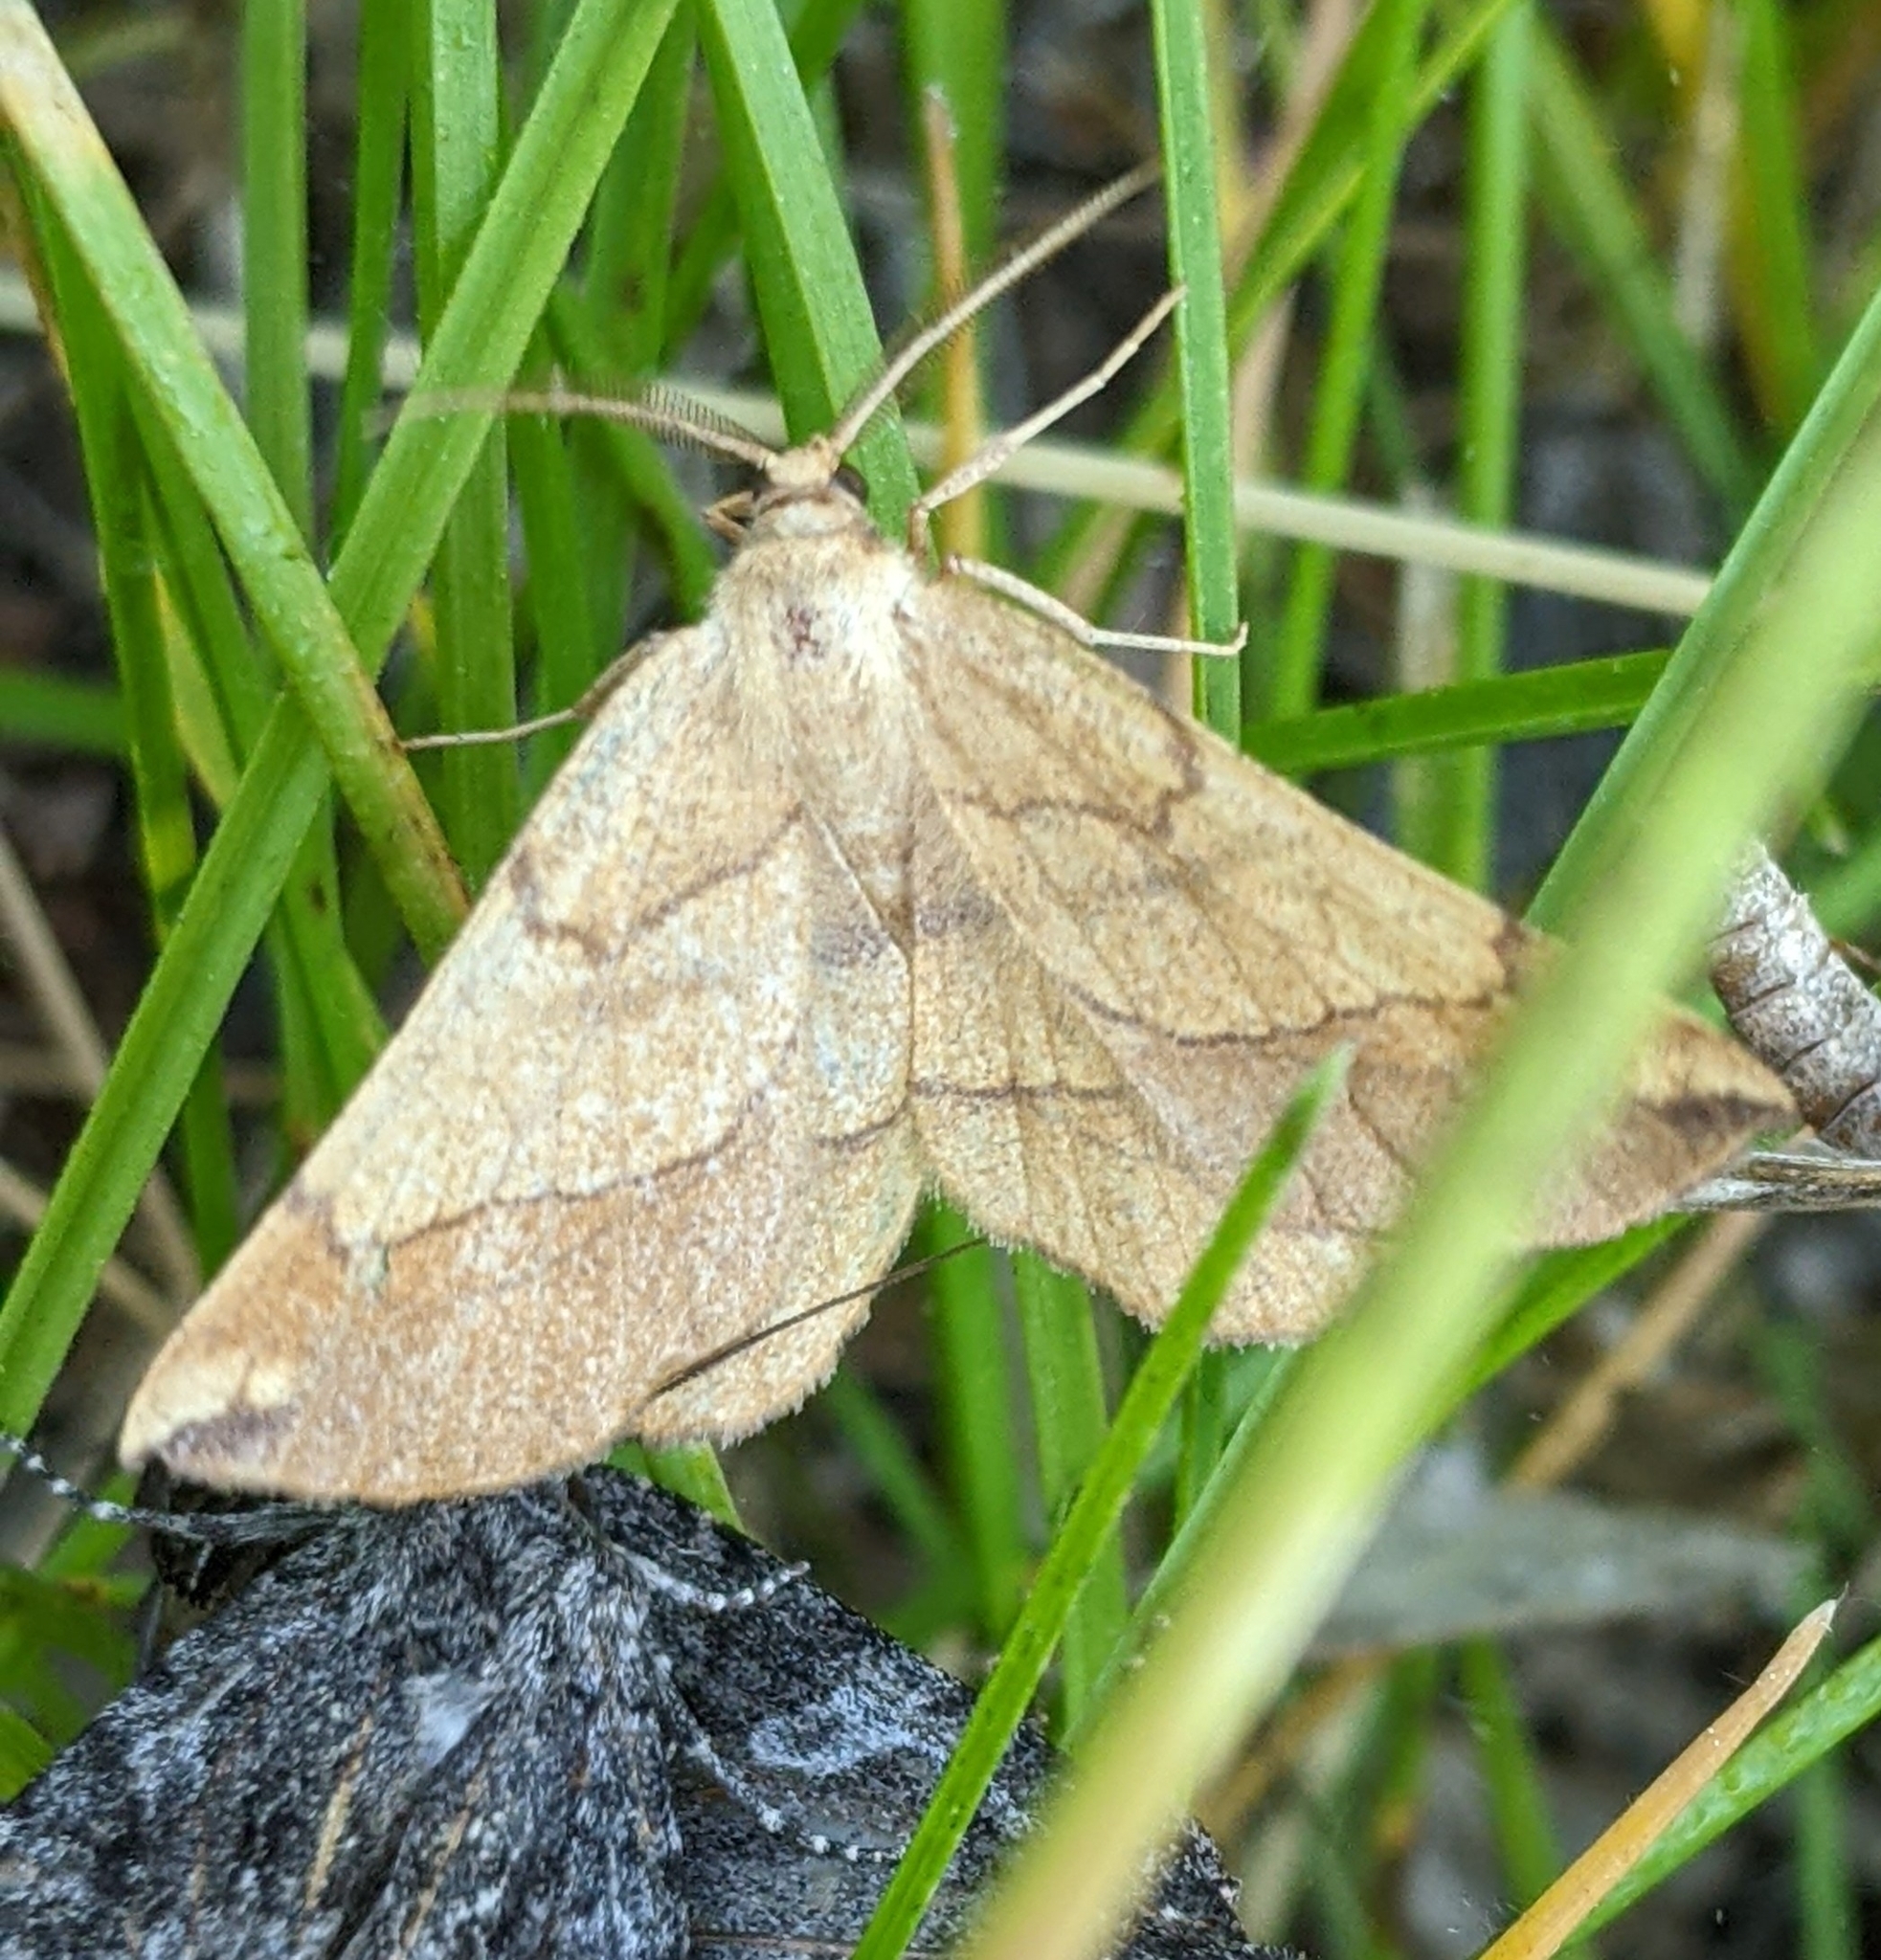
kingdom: Animalia
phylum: Arthropoda
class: Insecta
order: Lepidoptera
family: Geometridae
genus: Euchlaena
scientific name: Euchlaena madusaria
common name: Scrub euchlaena moth
